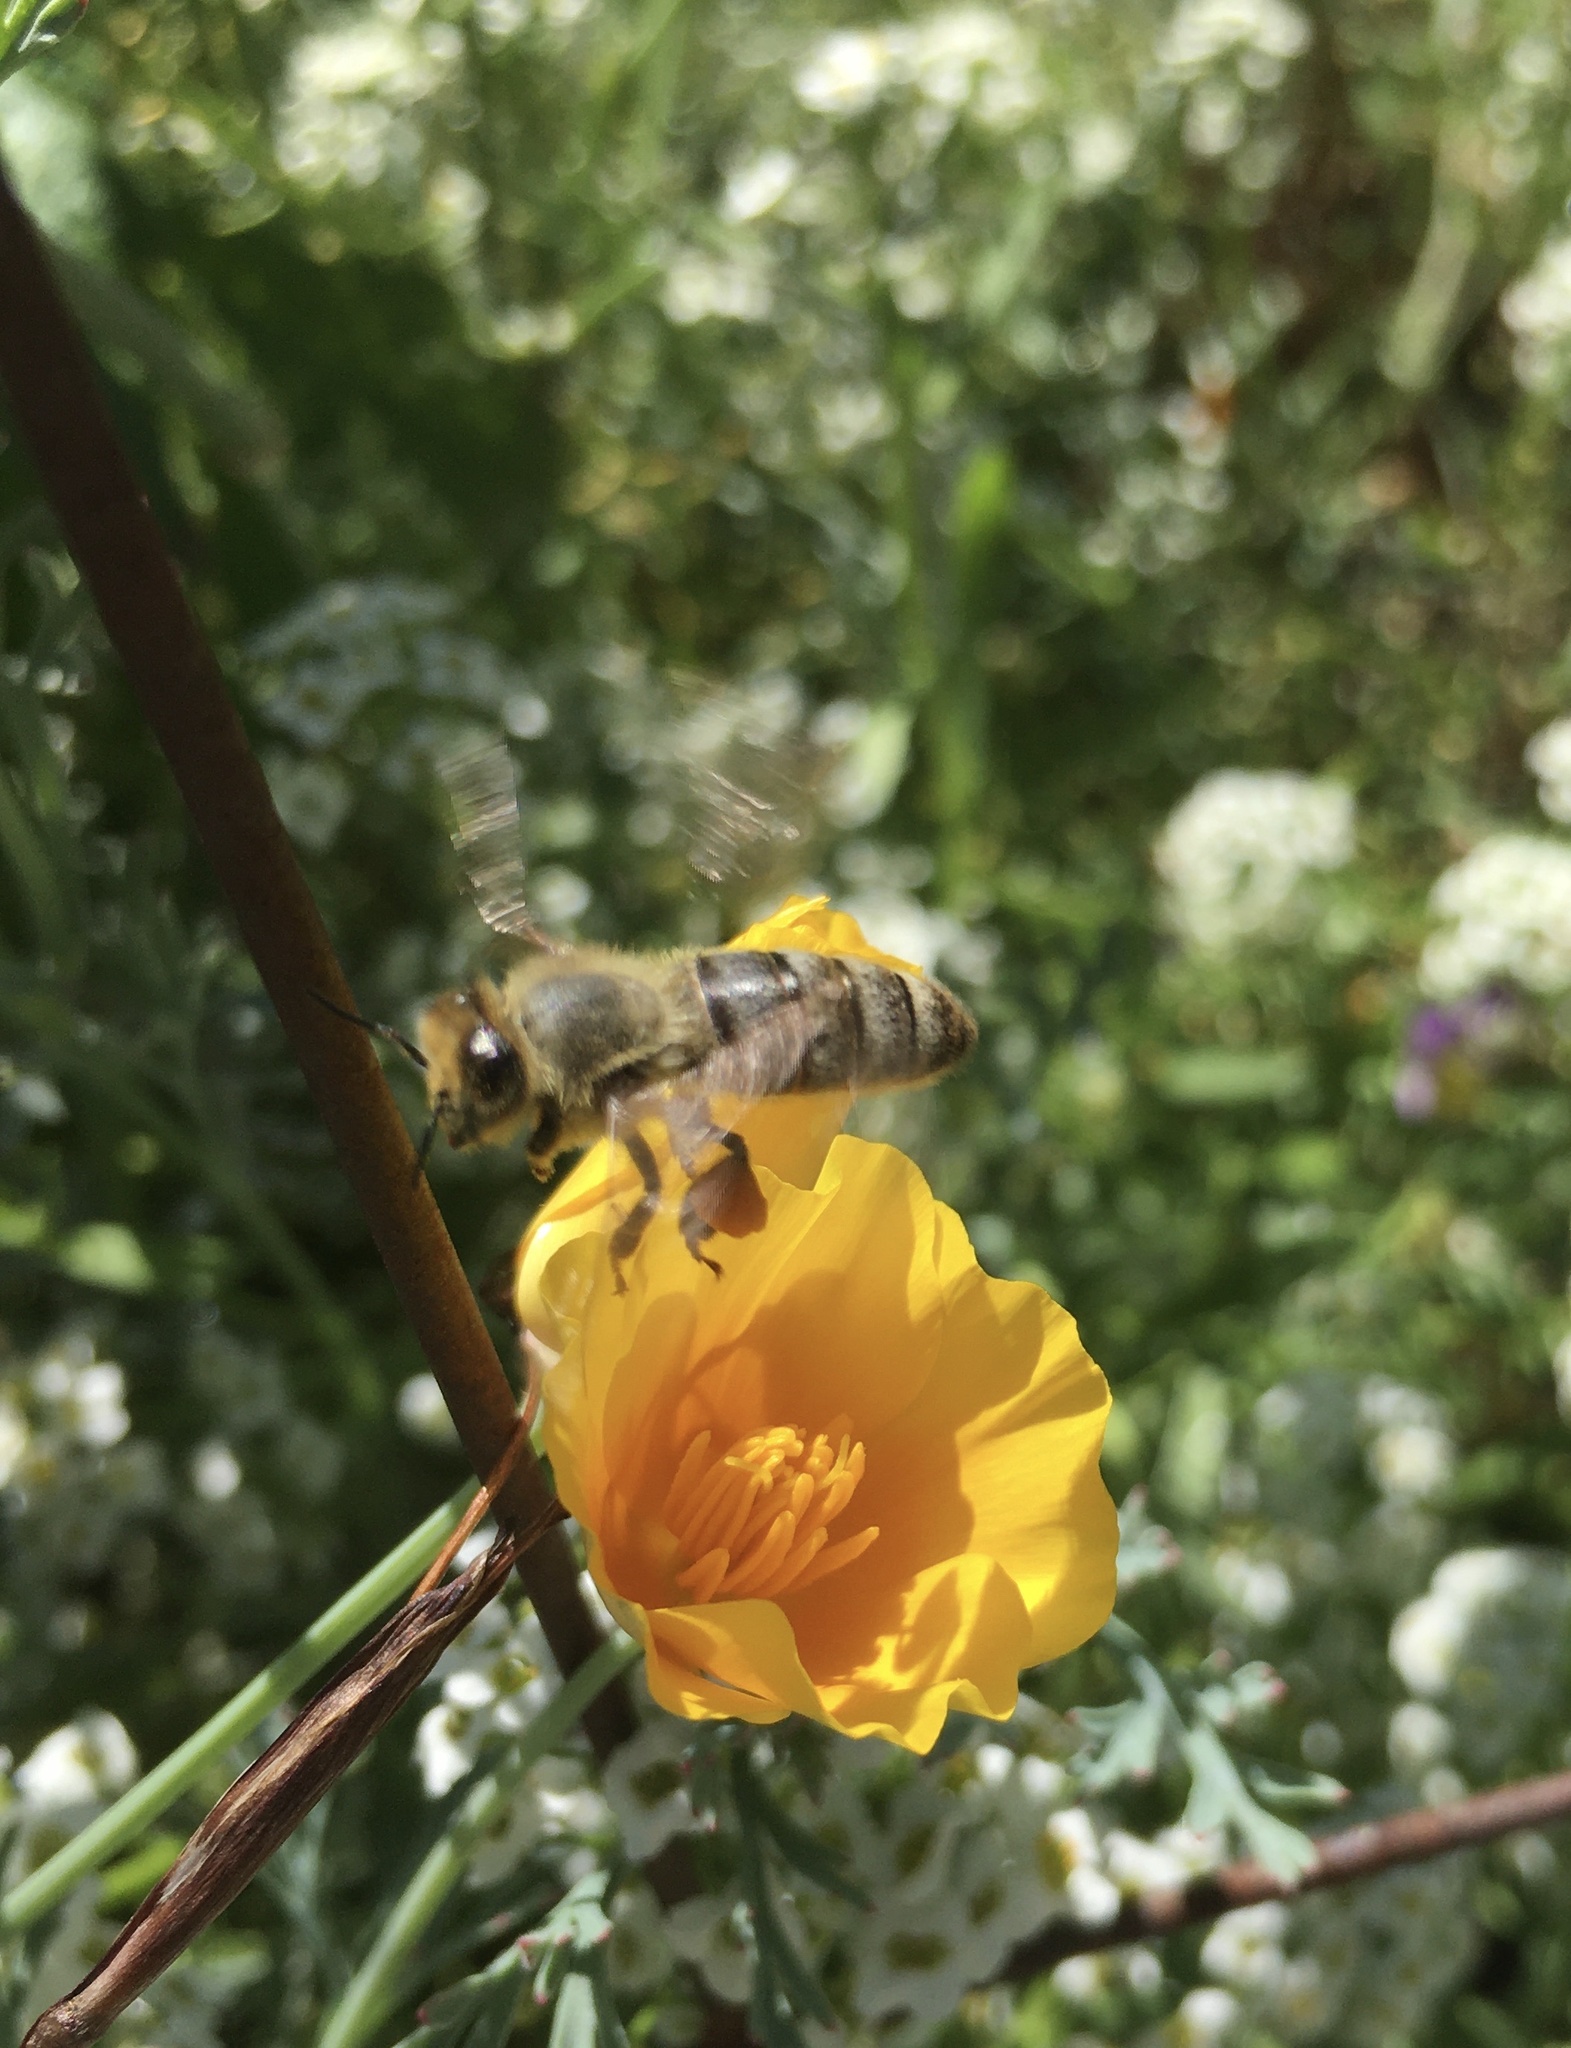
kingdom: Animalia
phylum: Arthropoda
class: Insecta
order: Hymenoptera
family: Apidae
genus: Apis
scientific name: Apis mellifera
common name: Honey bee
